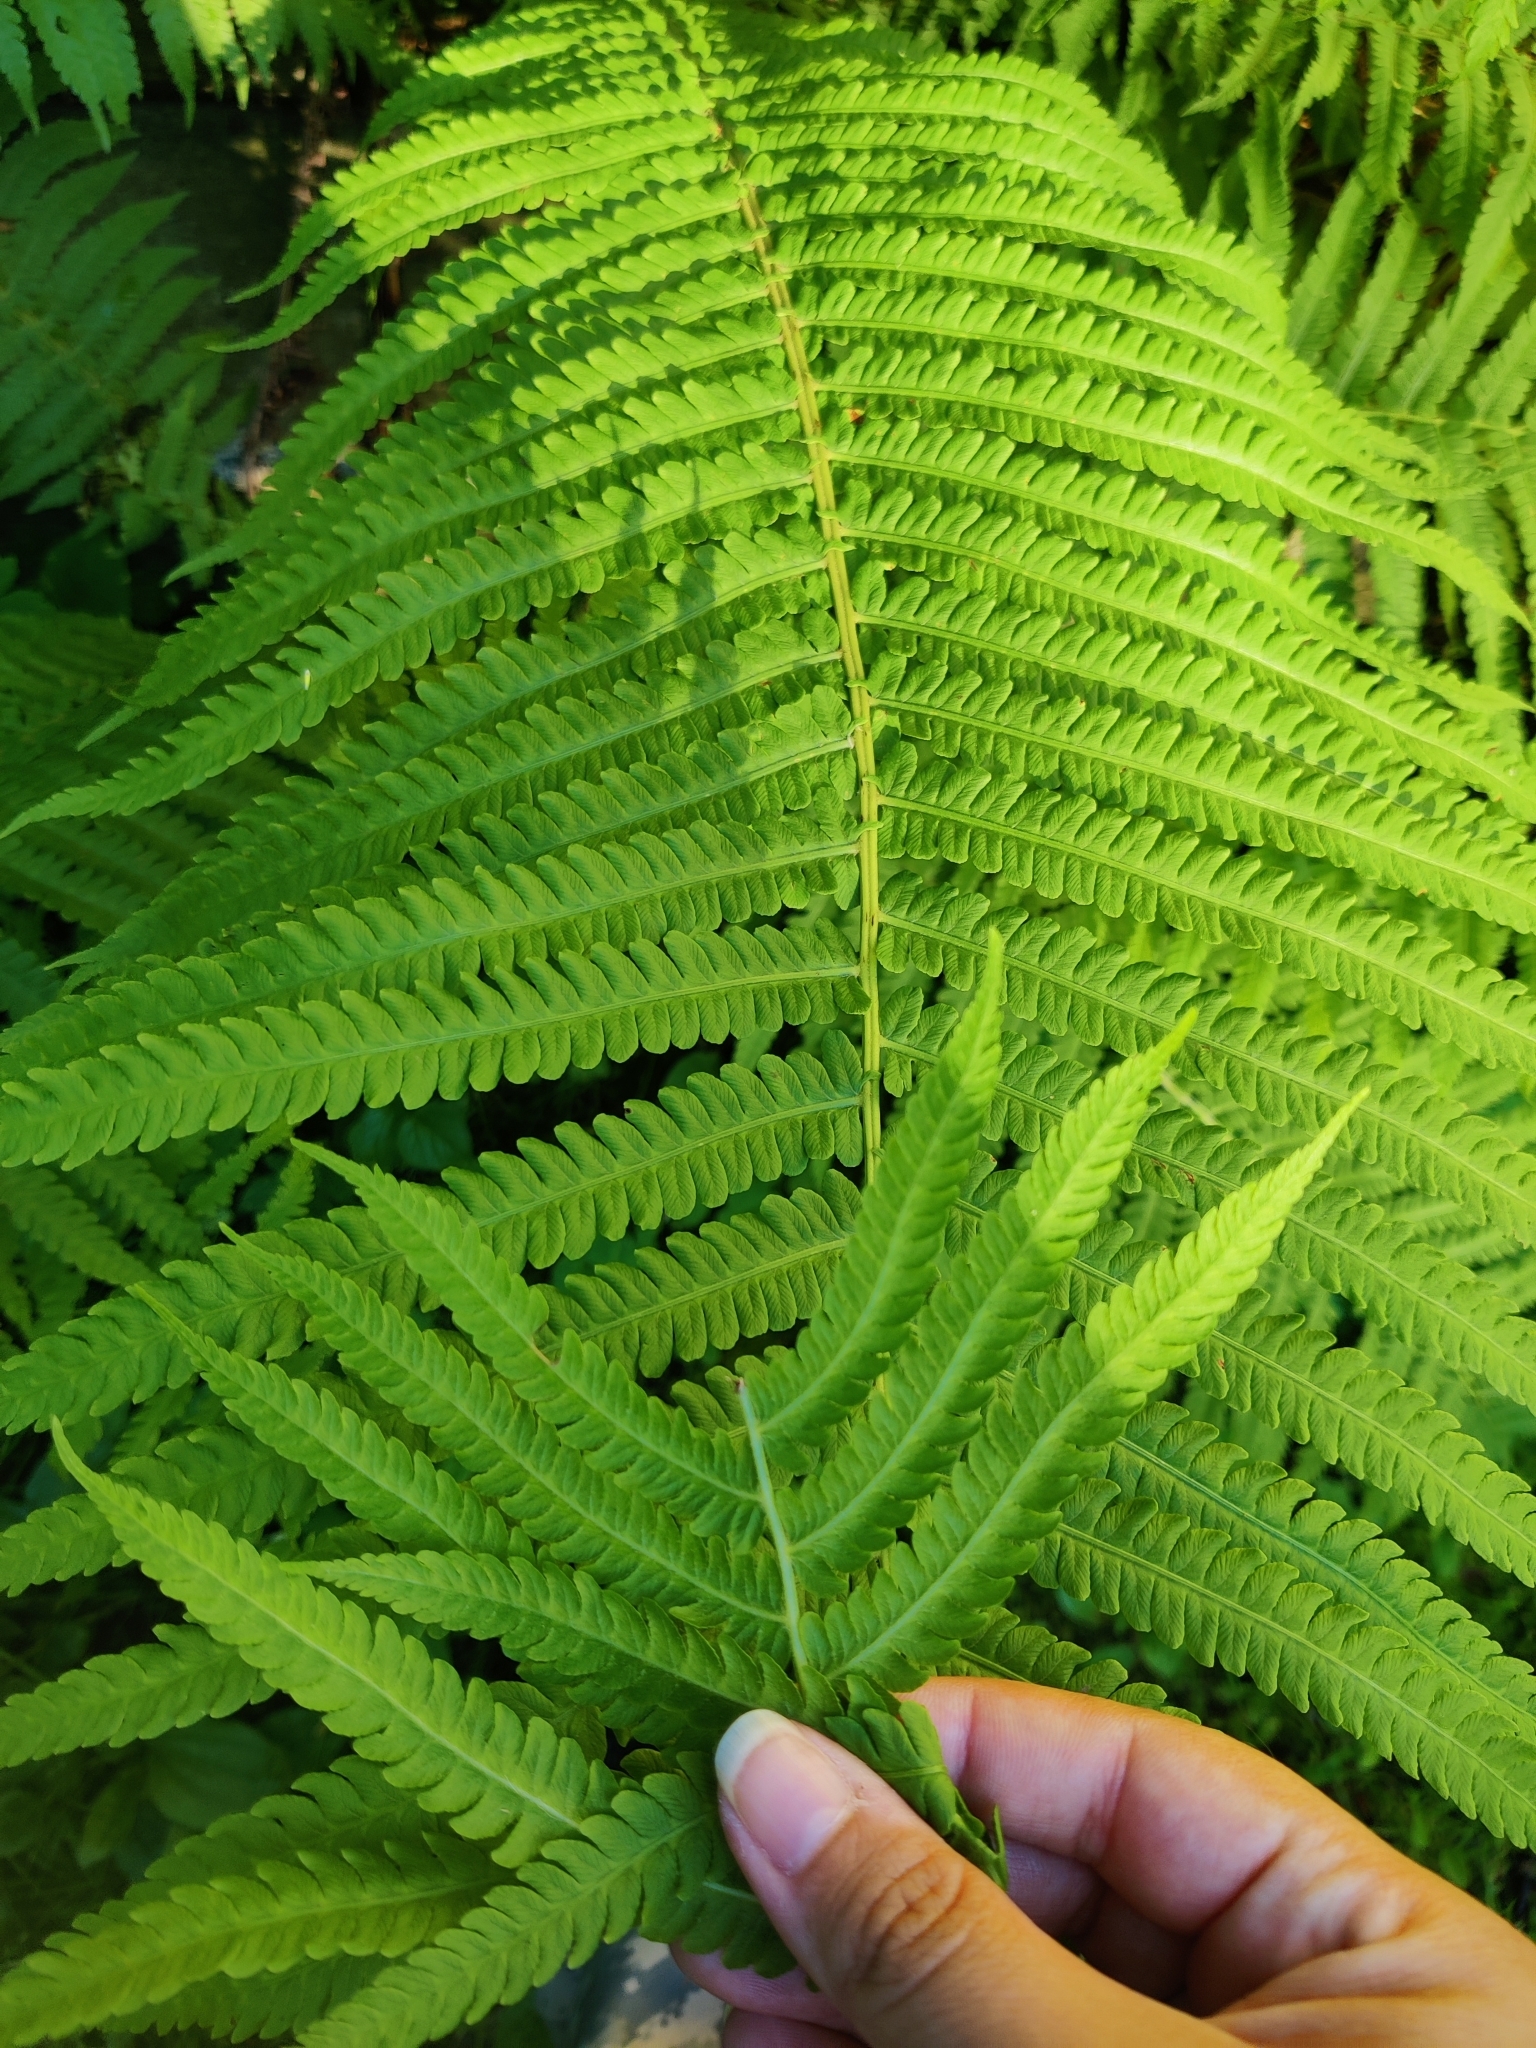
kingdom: Plantae
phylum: Tracheophyta
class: Polypodiopsida
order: Polypodiales
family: Onocleaceae
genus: Matteuccia
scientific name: Matteuccia struthiopteris
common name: Ostrich fern
